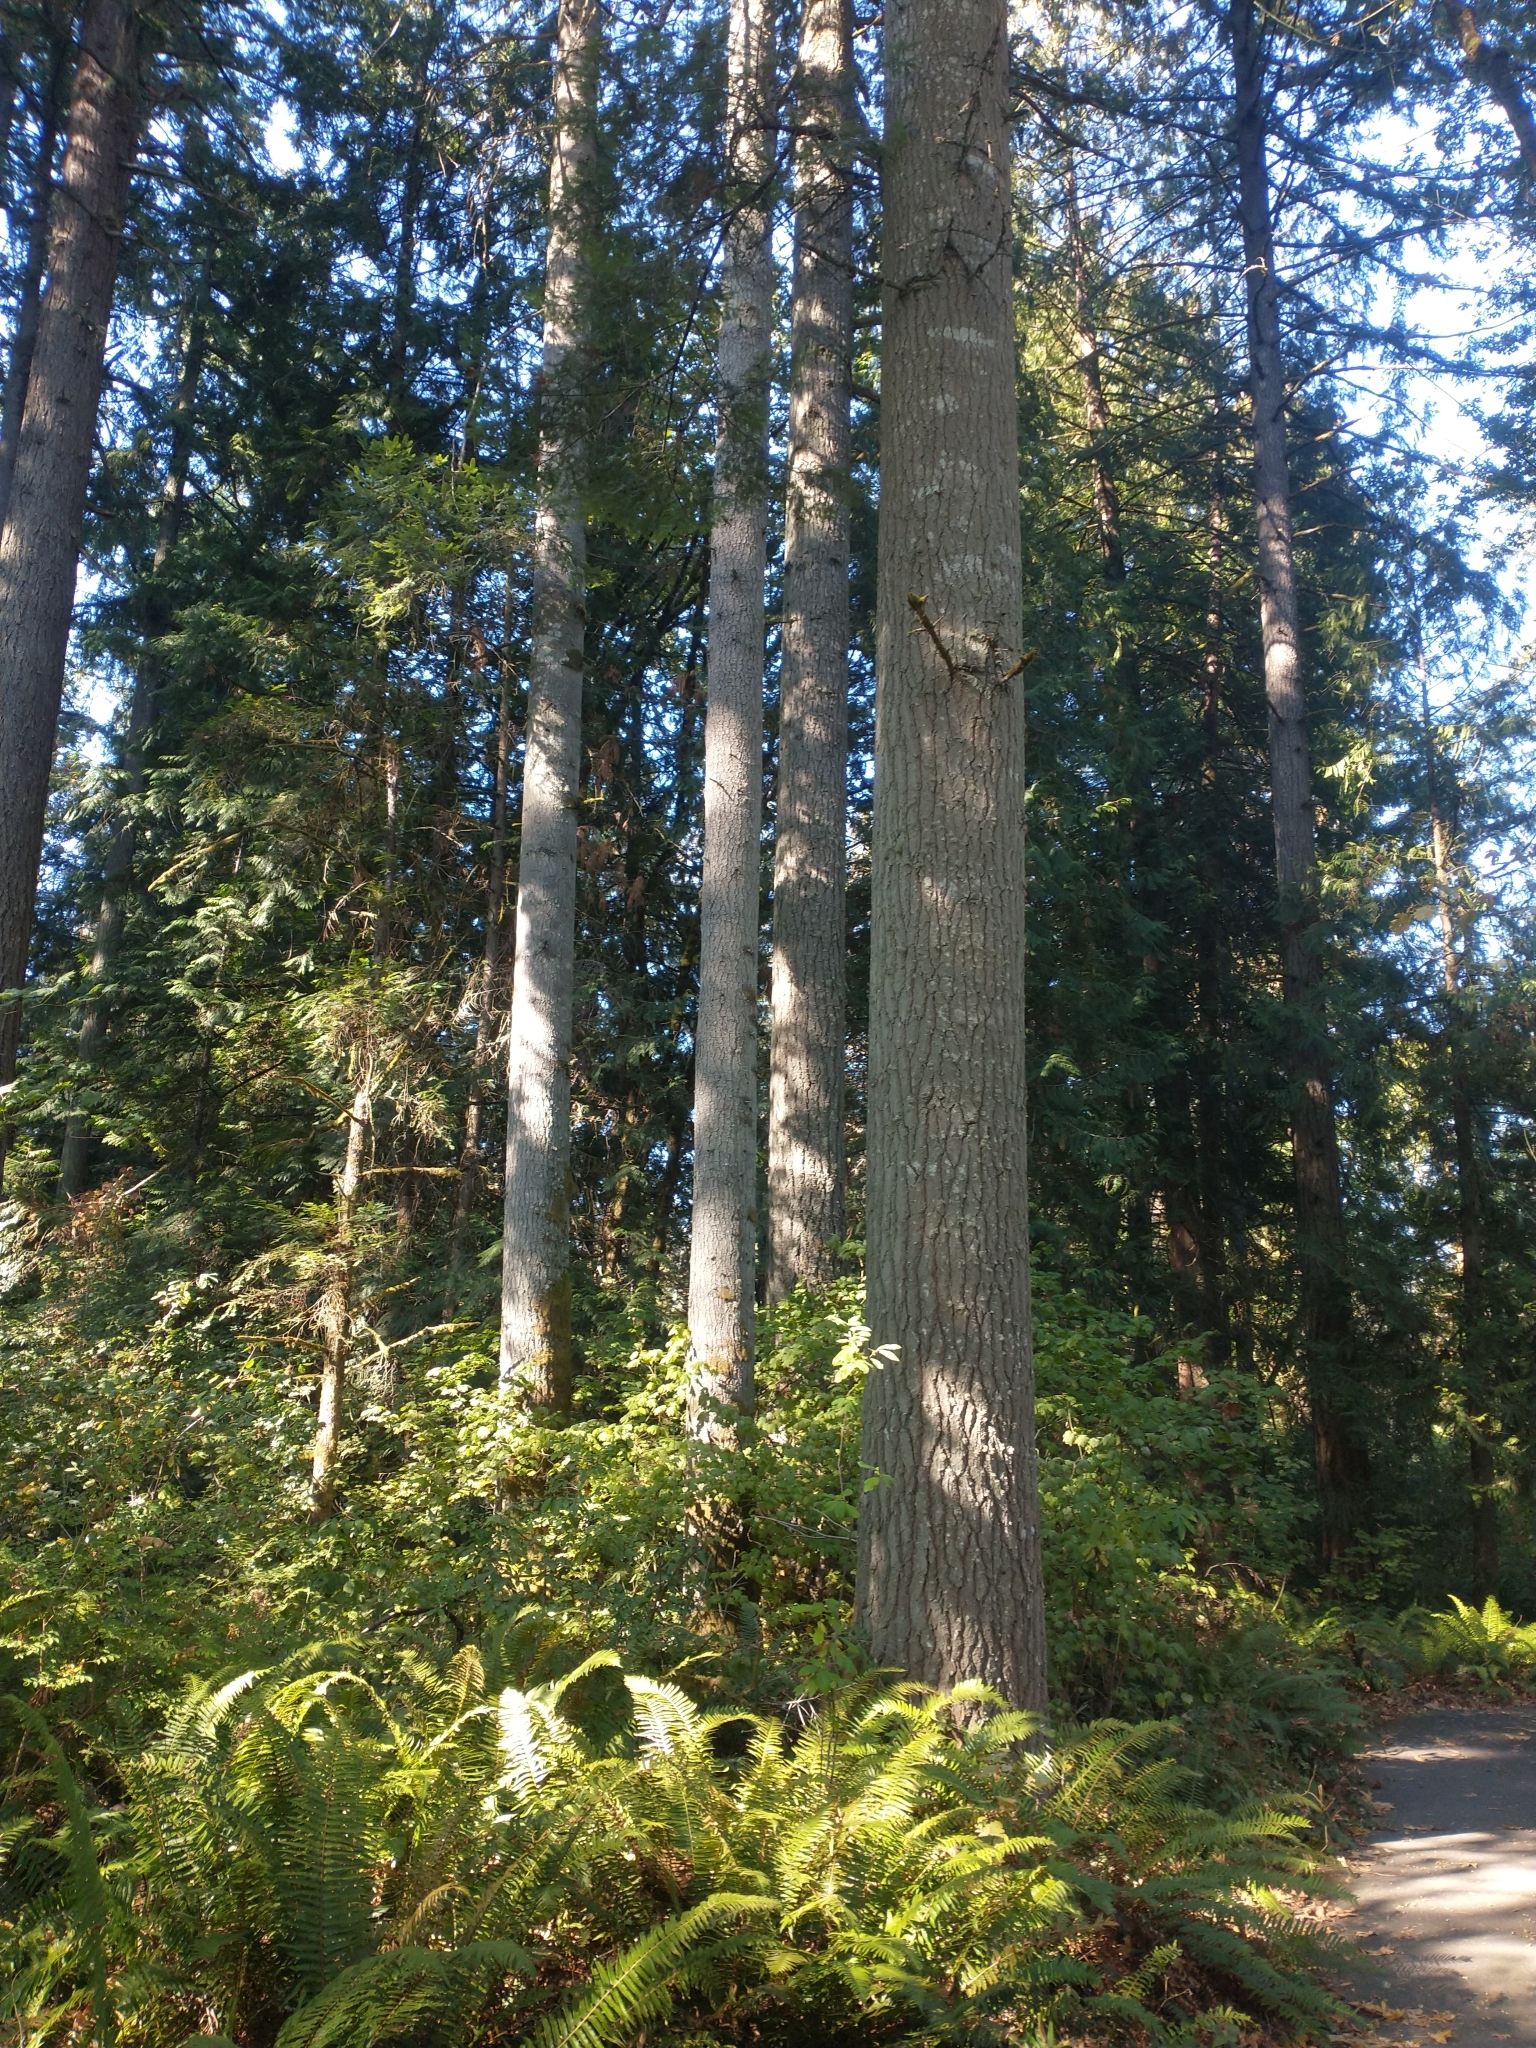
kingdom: Plantae
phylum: Tracheophyta
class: Pinopsida
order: Pinales
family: Pinaceae
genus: Abies
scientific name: Abies grandis
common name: Giant fir
